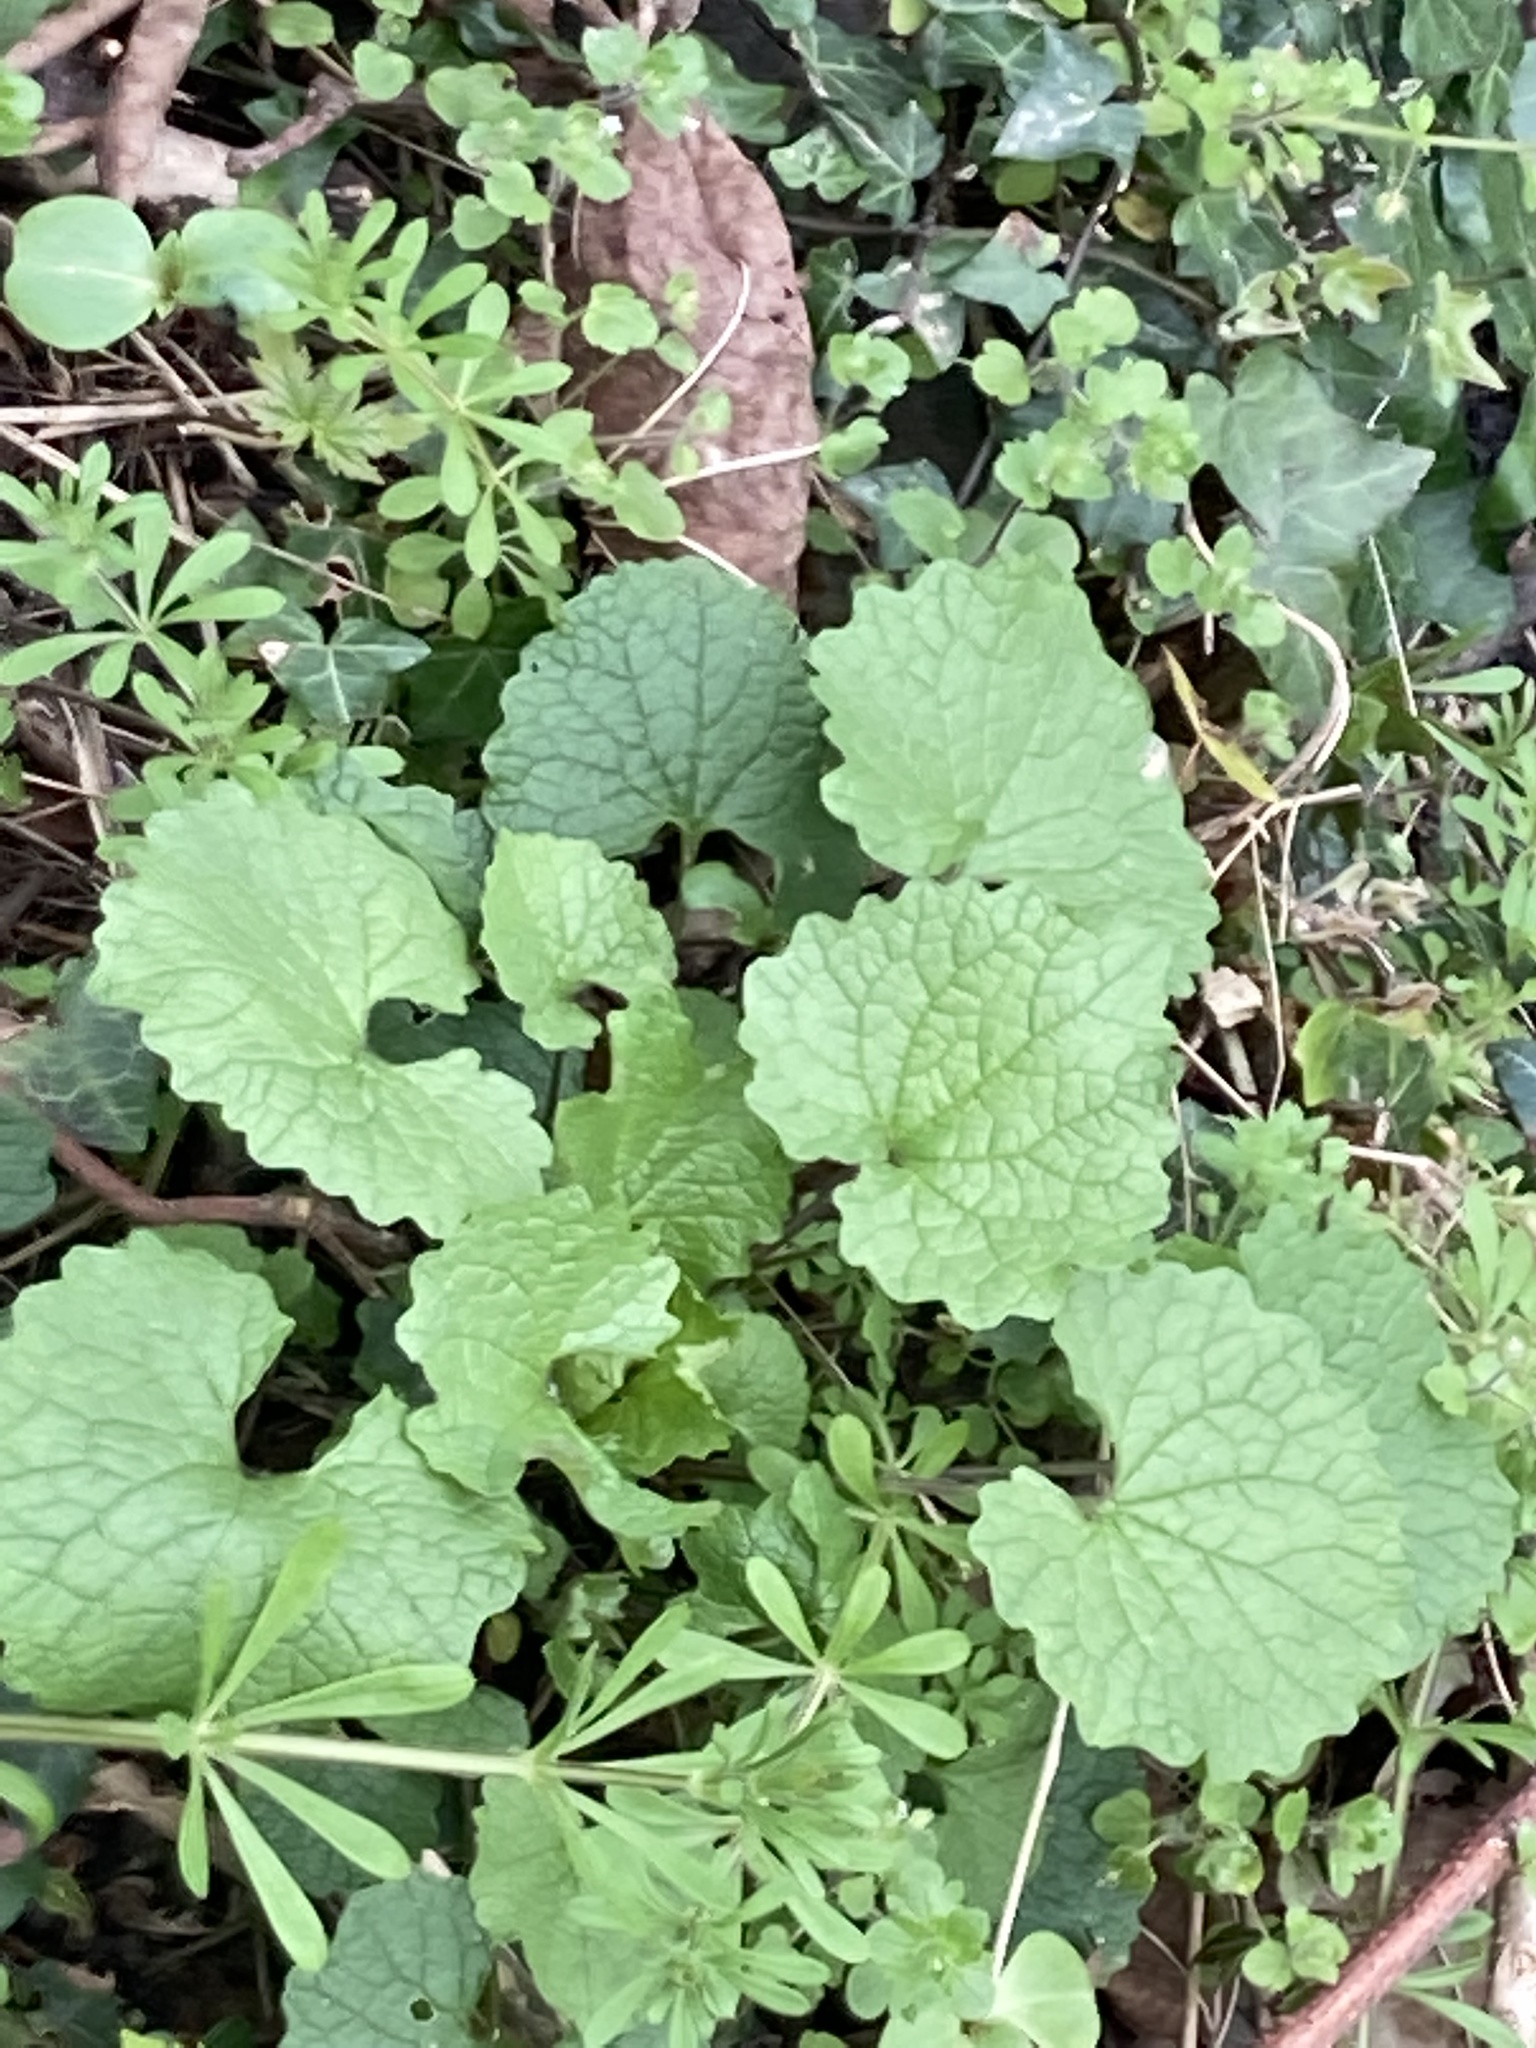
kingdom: Plantae
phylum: Tracheophyta
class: Magnoliopsida
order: Brassicales
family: Brassicaceae
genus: Alliaria
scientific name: Alliaria petiolata
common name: Garlic mustard
